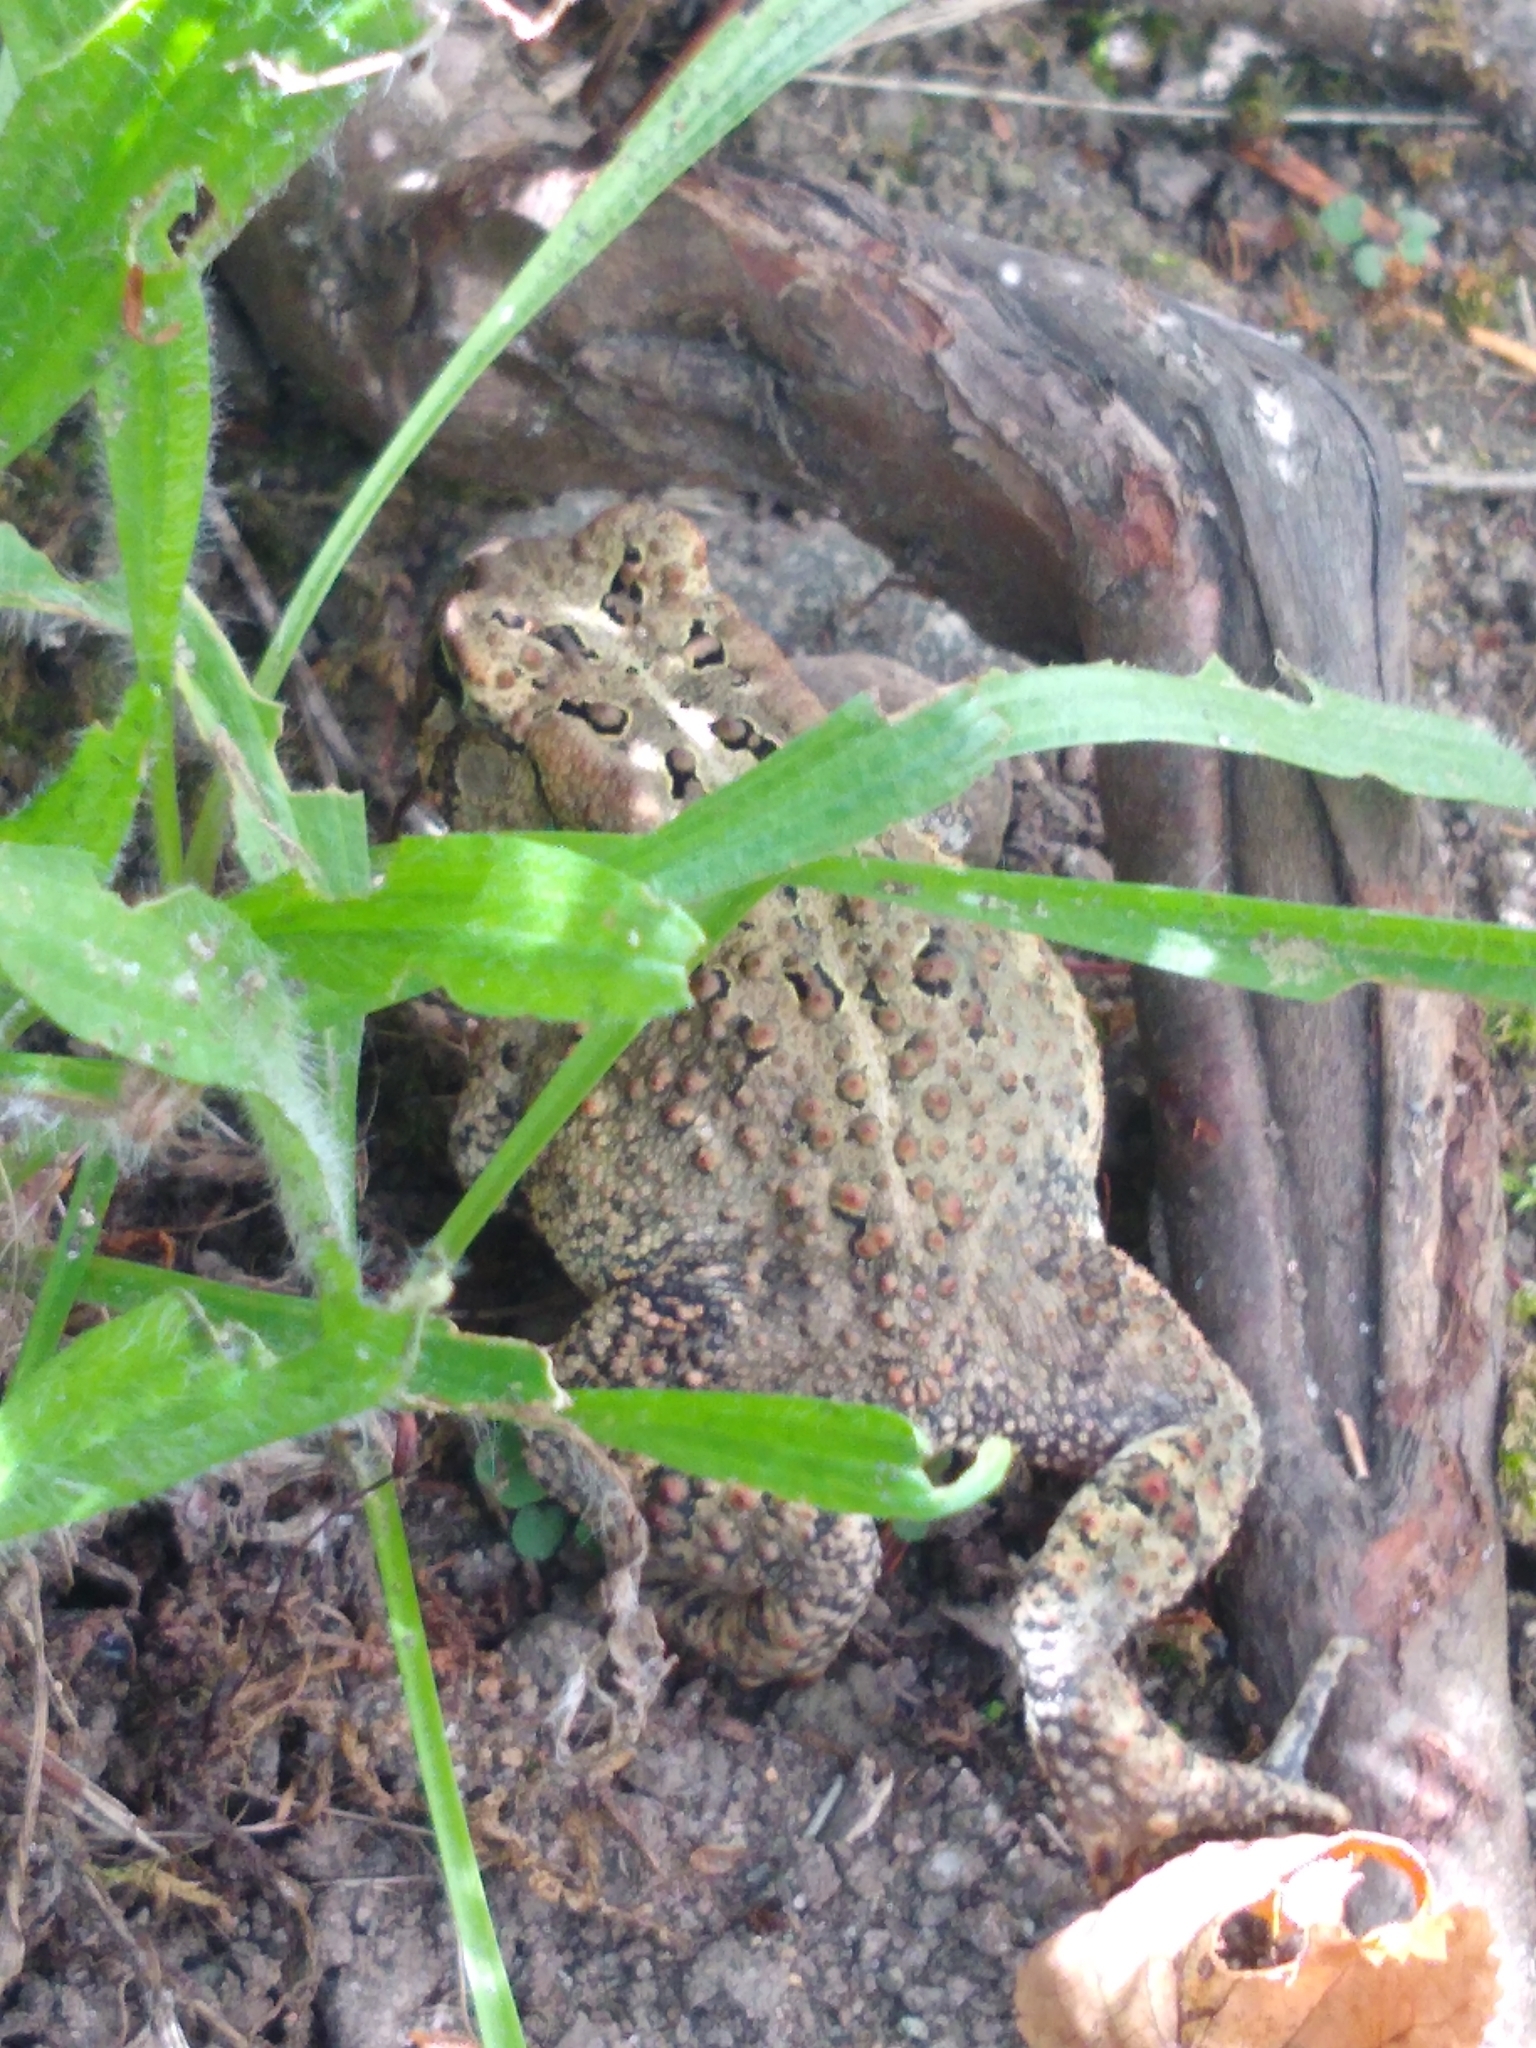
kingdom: Animalia
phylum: Chordata
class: Amphibia
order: Anura
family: Bufonidae
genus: Anaxyrus
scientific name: Anaxyrus americanus
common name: American toad
